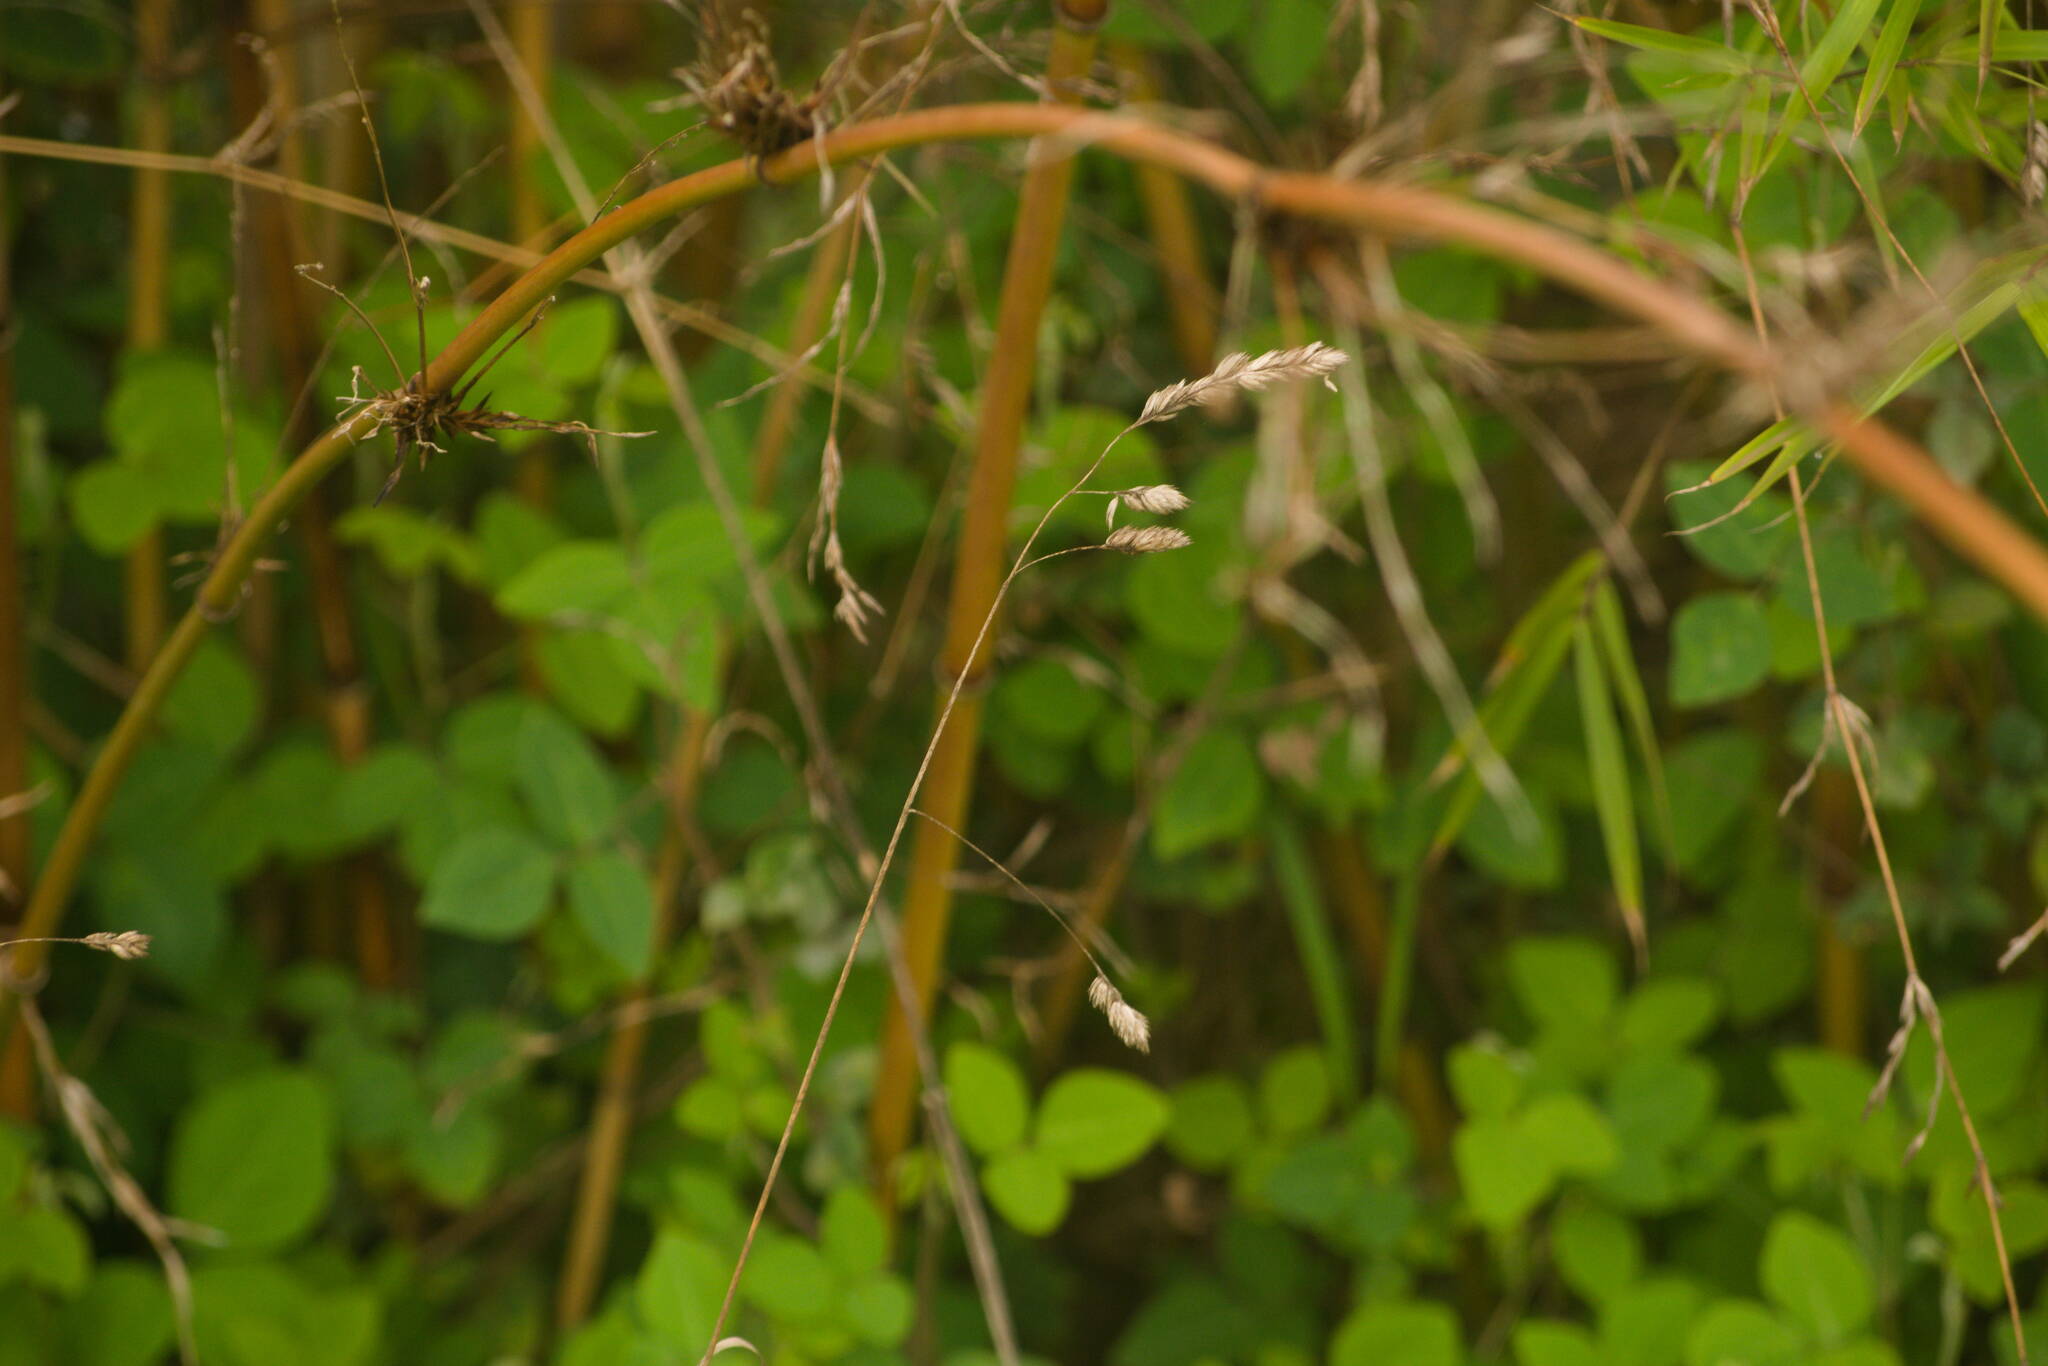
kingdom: Plantae
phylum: Tracheophyta
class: Liliopsida
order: Poales
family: Poaceae
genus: Dactylis
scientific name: Dactylis glomerata
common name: Orchardgrass
